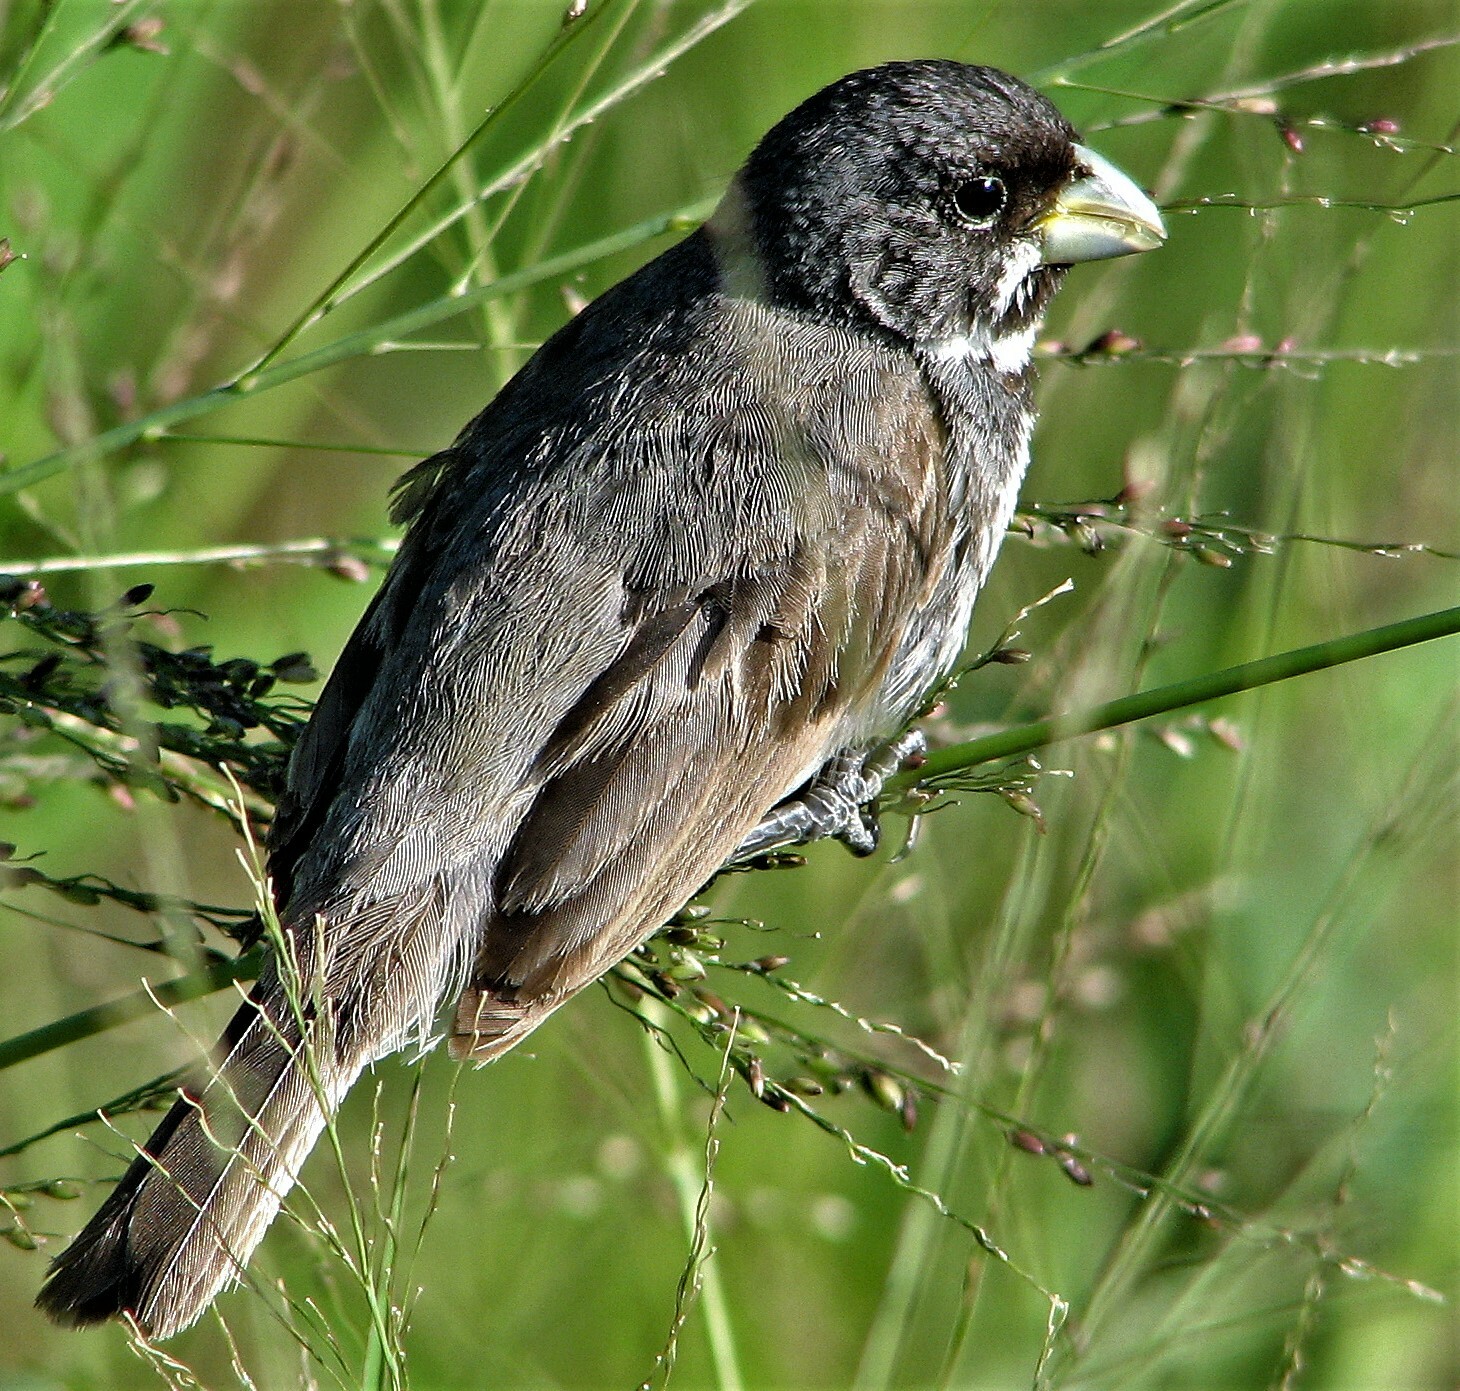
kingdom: Animalia
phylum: Chordata
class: Aves
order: Passeriformes
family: Thraupidae
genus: Sporophila
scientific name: Sporophila caerulescens
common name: Double-collared seedeater
